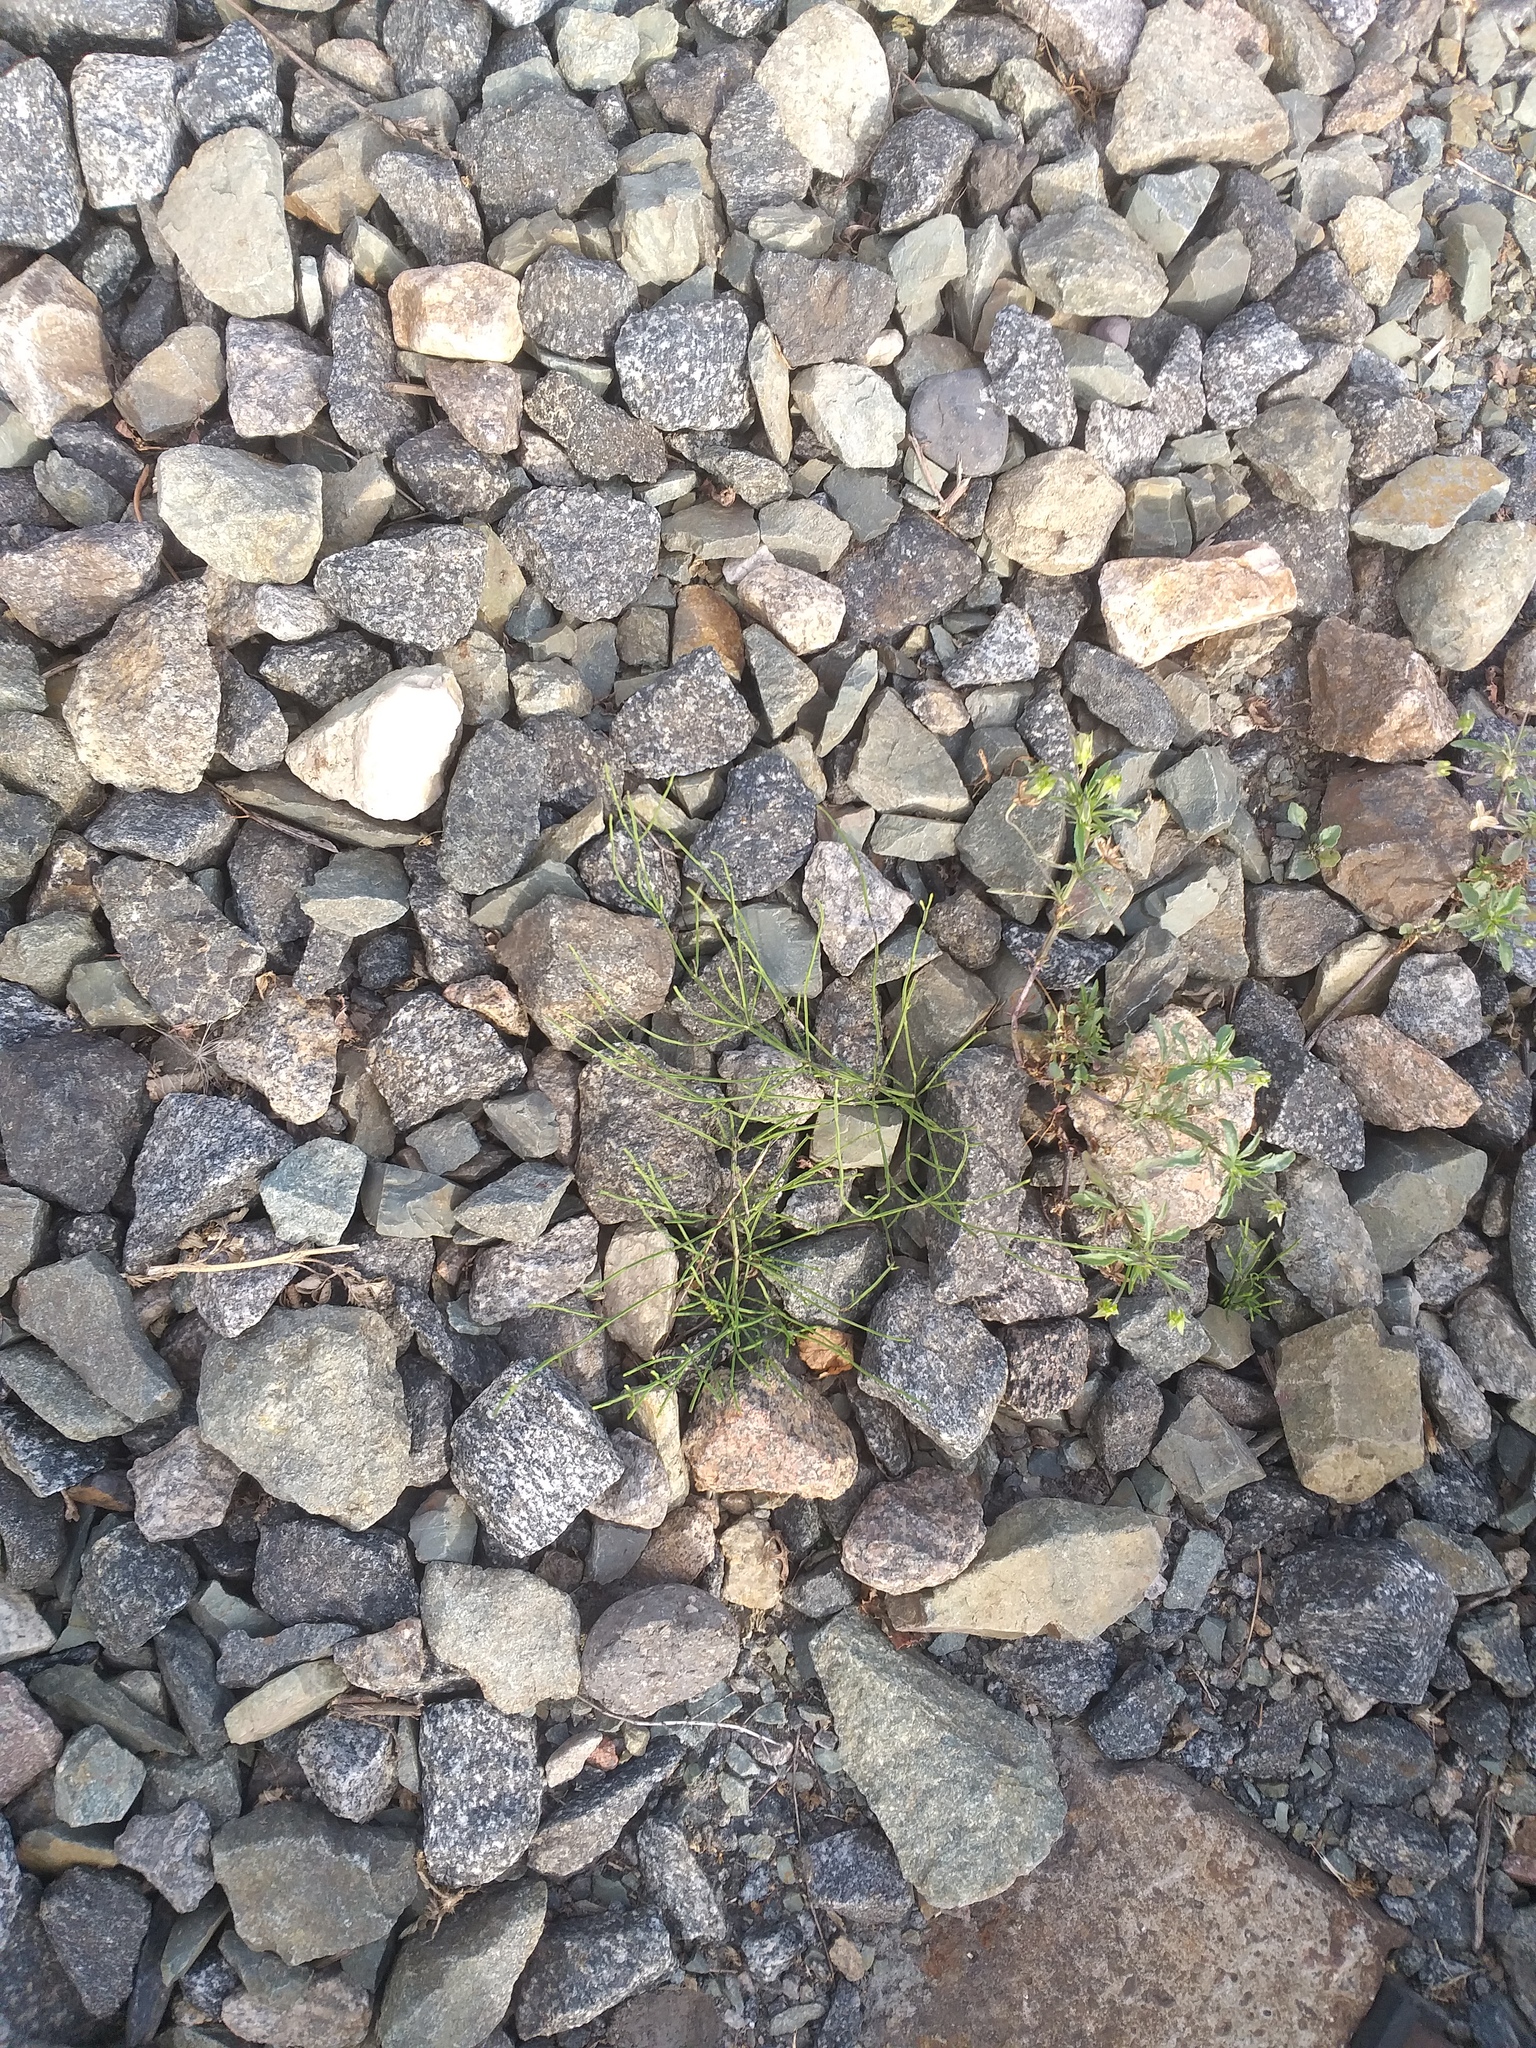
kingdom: Plantae
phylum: Tracheophyta
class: Polypodiopsida
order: Equisetales
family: Equisetaceae
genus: Equisetum
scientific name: Equisetum arvense
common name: Field horsetail
